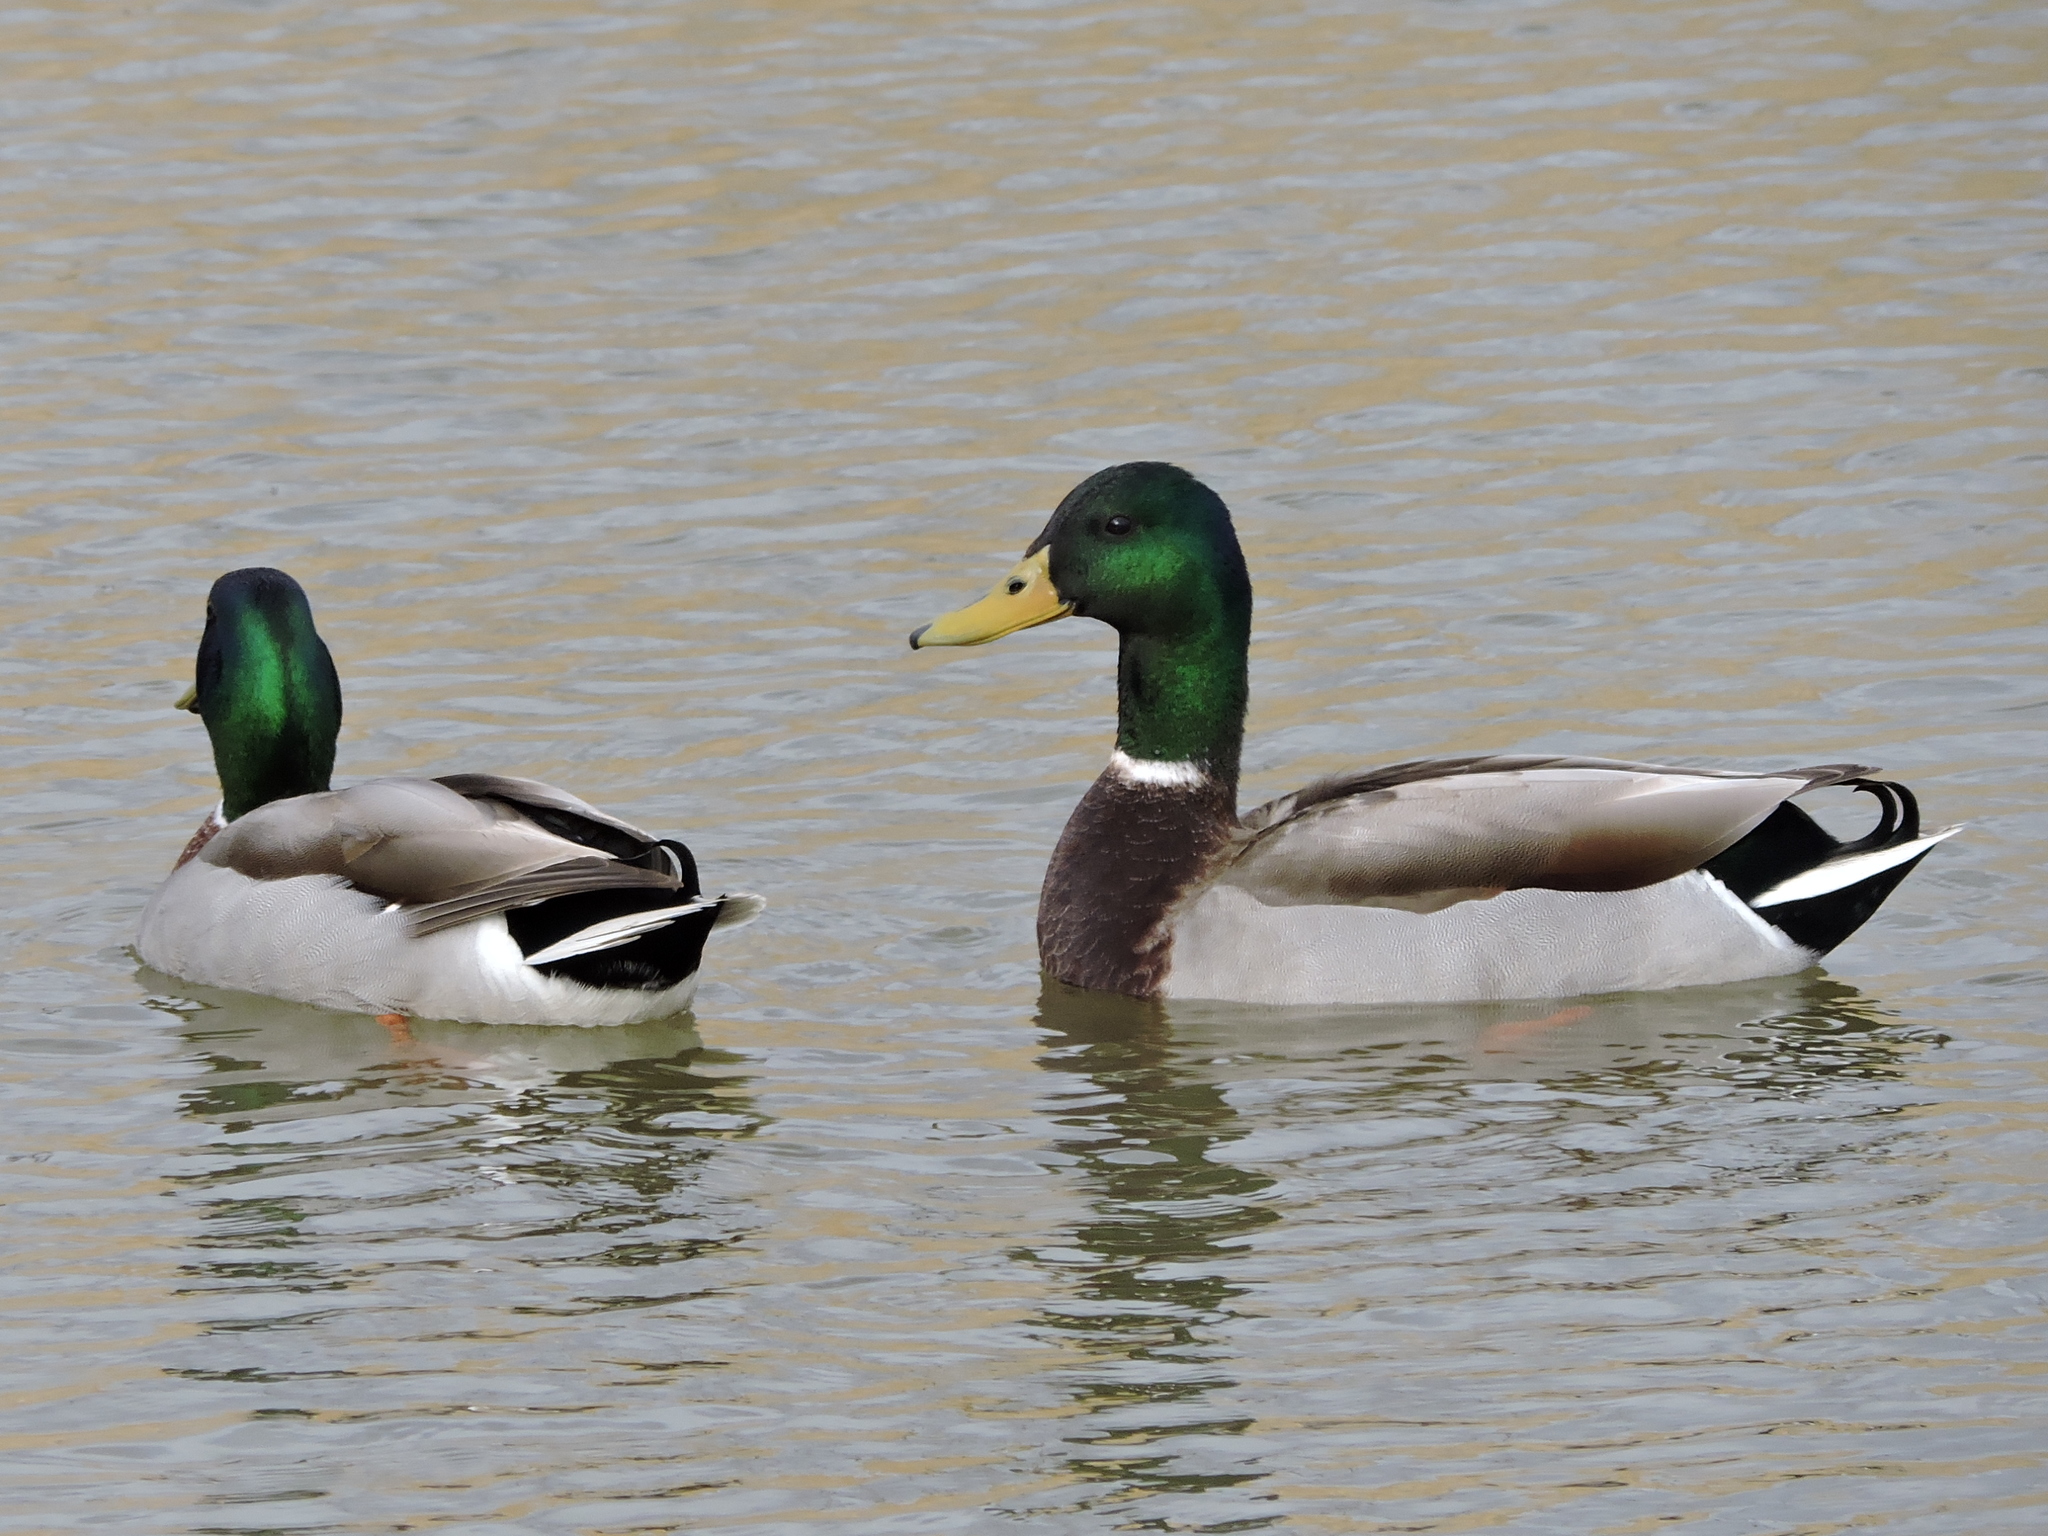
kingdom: Animalia
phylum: Chordata
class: Aves
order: Anseriformes
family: Anatidae
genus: Anas
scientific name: Anas platyrhynchos
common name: Mallard
